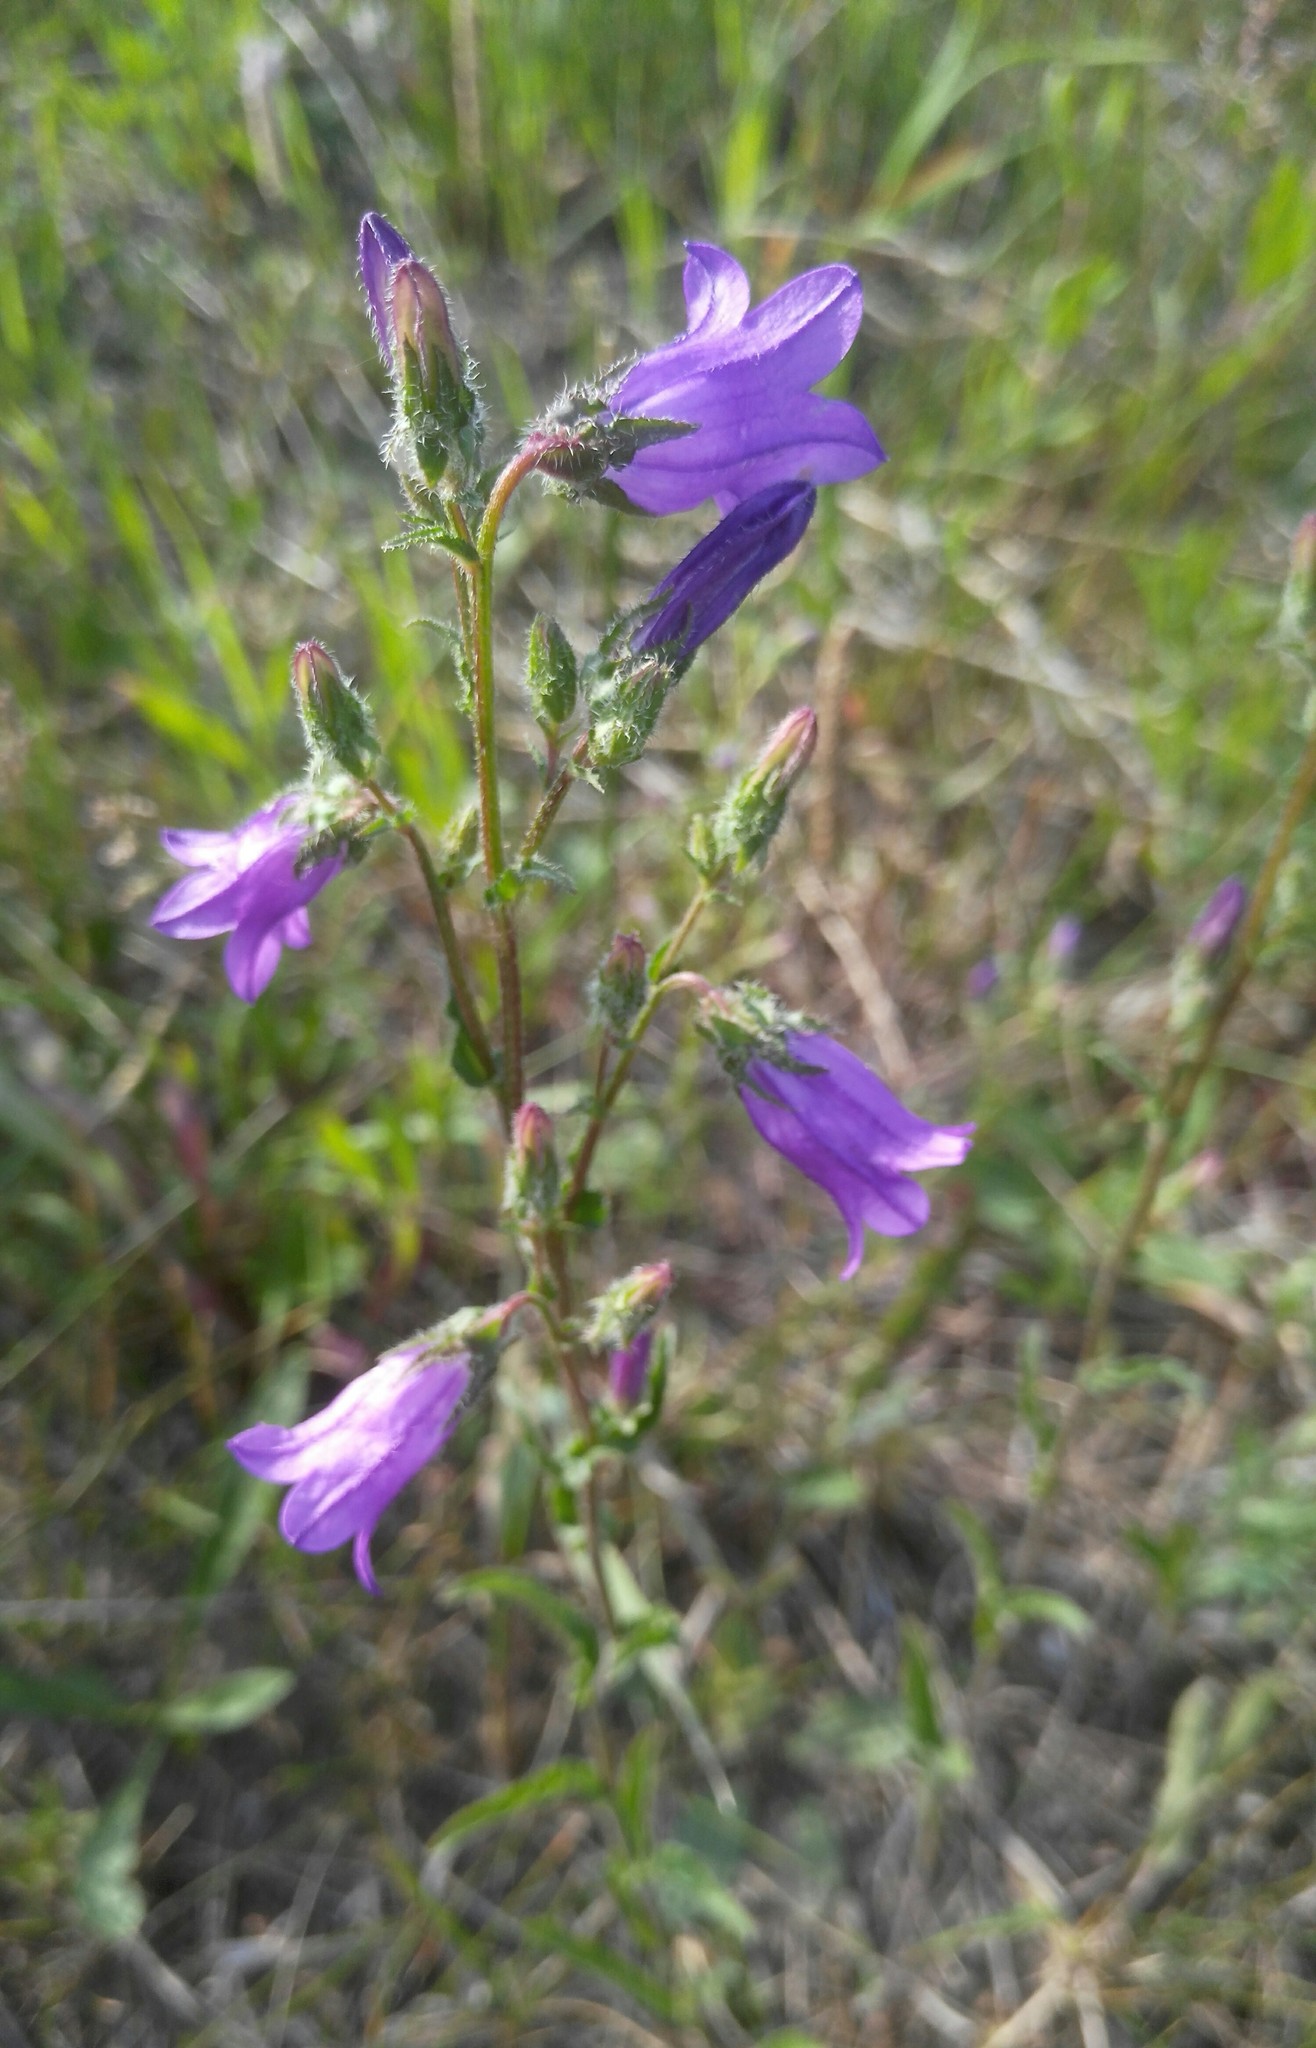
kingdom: Plantae
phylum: Tracheophyta
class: Magnoliopsida
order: Asterales
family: Campanulaceae
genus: Campanula
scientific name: Campanula sibirica
